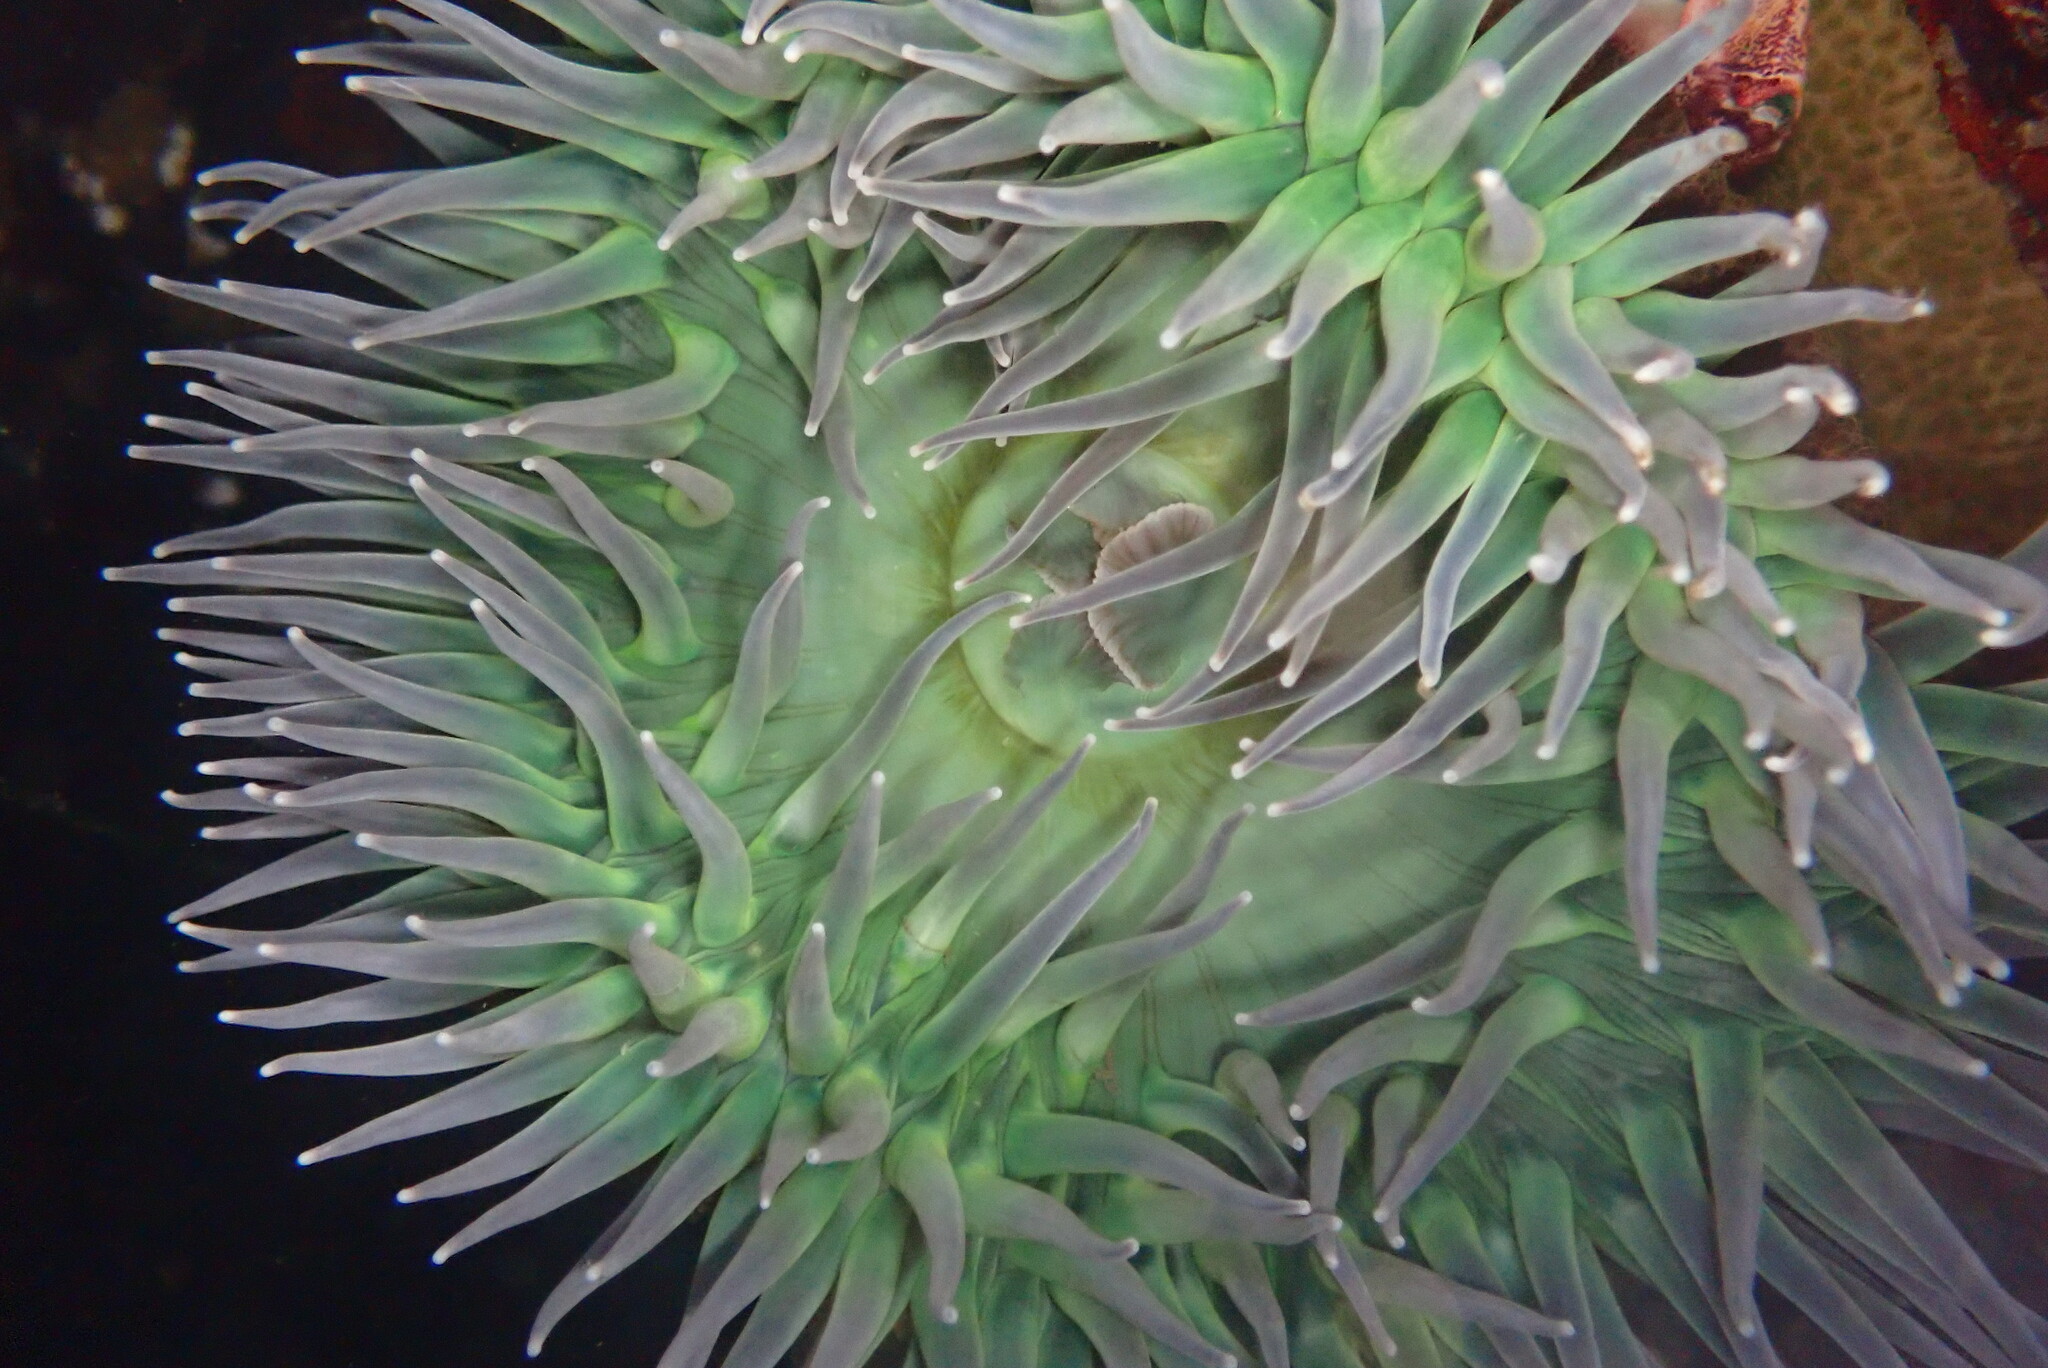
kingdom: Animalia
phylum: Cnidaria
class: Anthozoa
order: Actiniaria
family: Actiniidae
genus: Anthopleura
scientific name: Anthopleura xanthogrammica
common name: Giant green anemone
